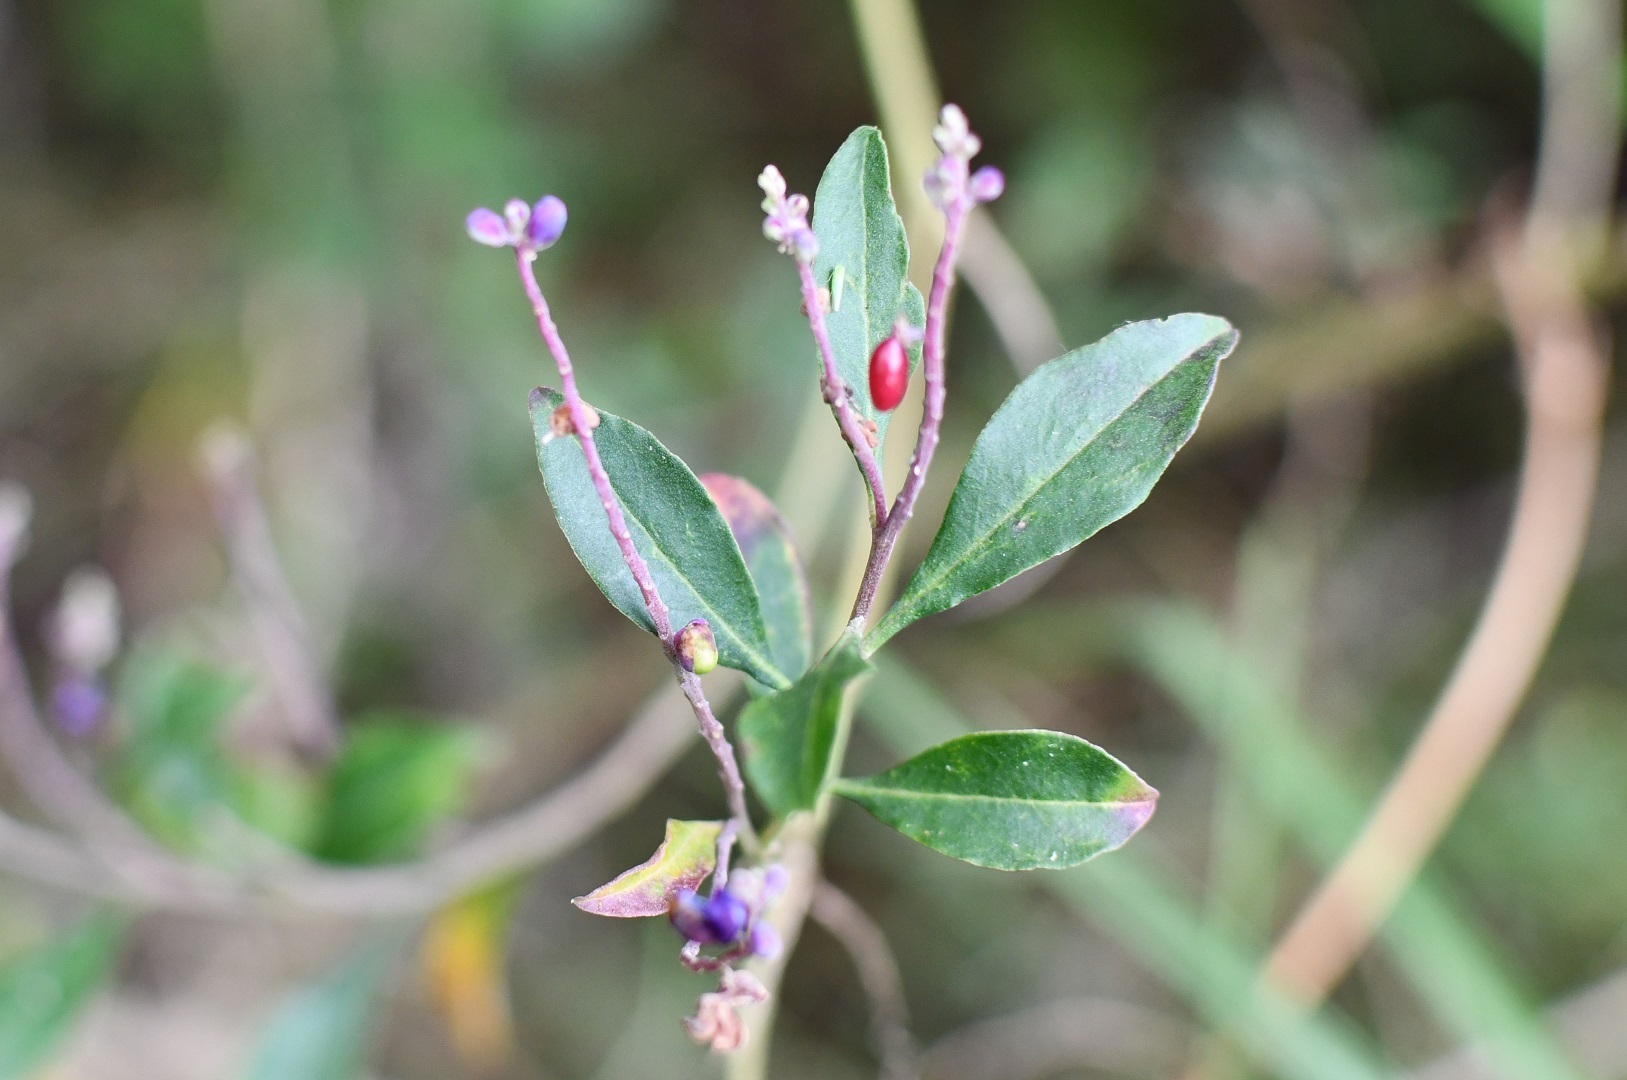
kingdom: Plantae
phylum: Tracheophyta
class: Magnoliopsida
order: Fabales
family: Polygalaceae
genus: Monnina
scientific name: Monnina xalapensis
